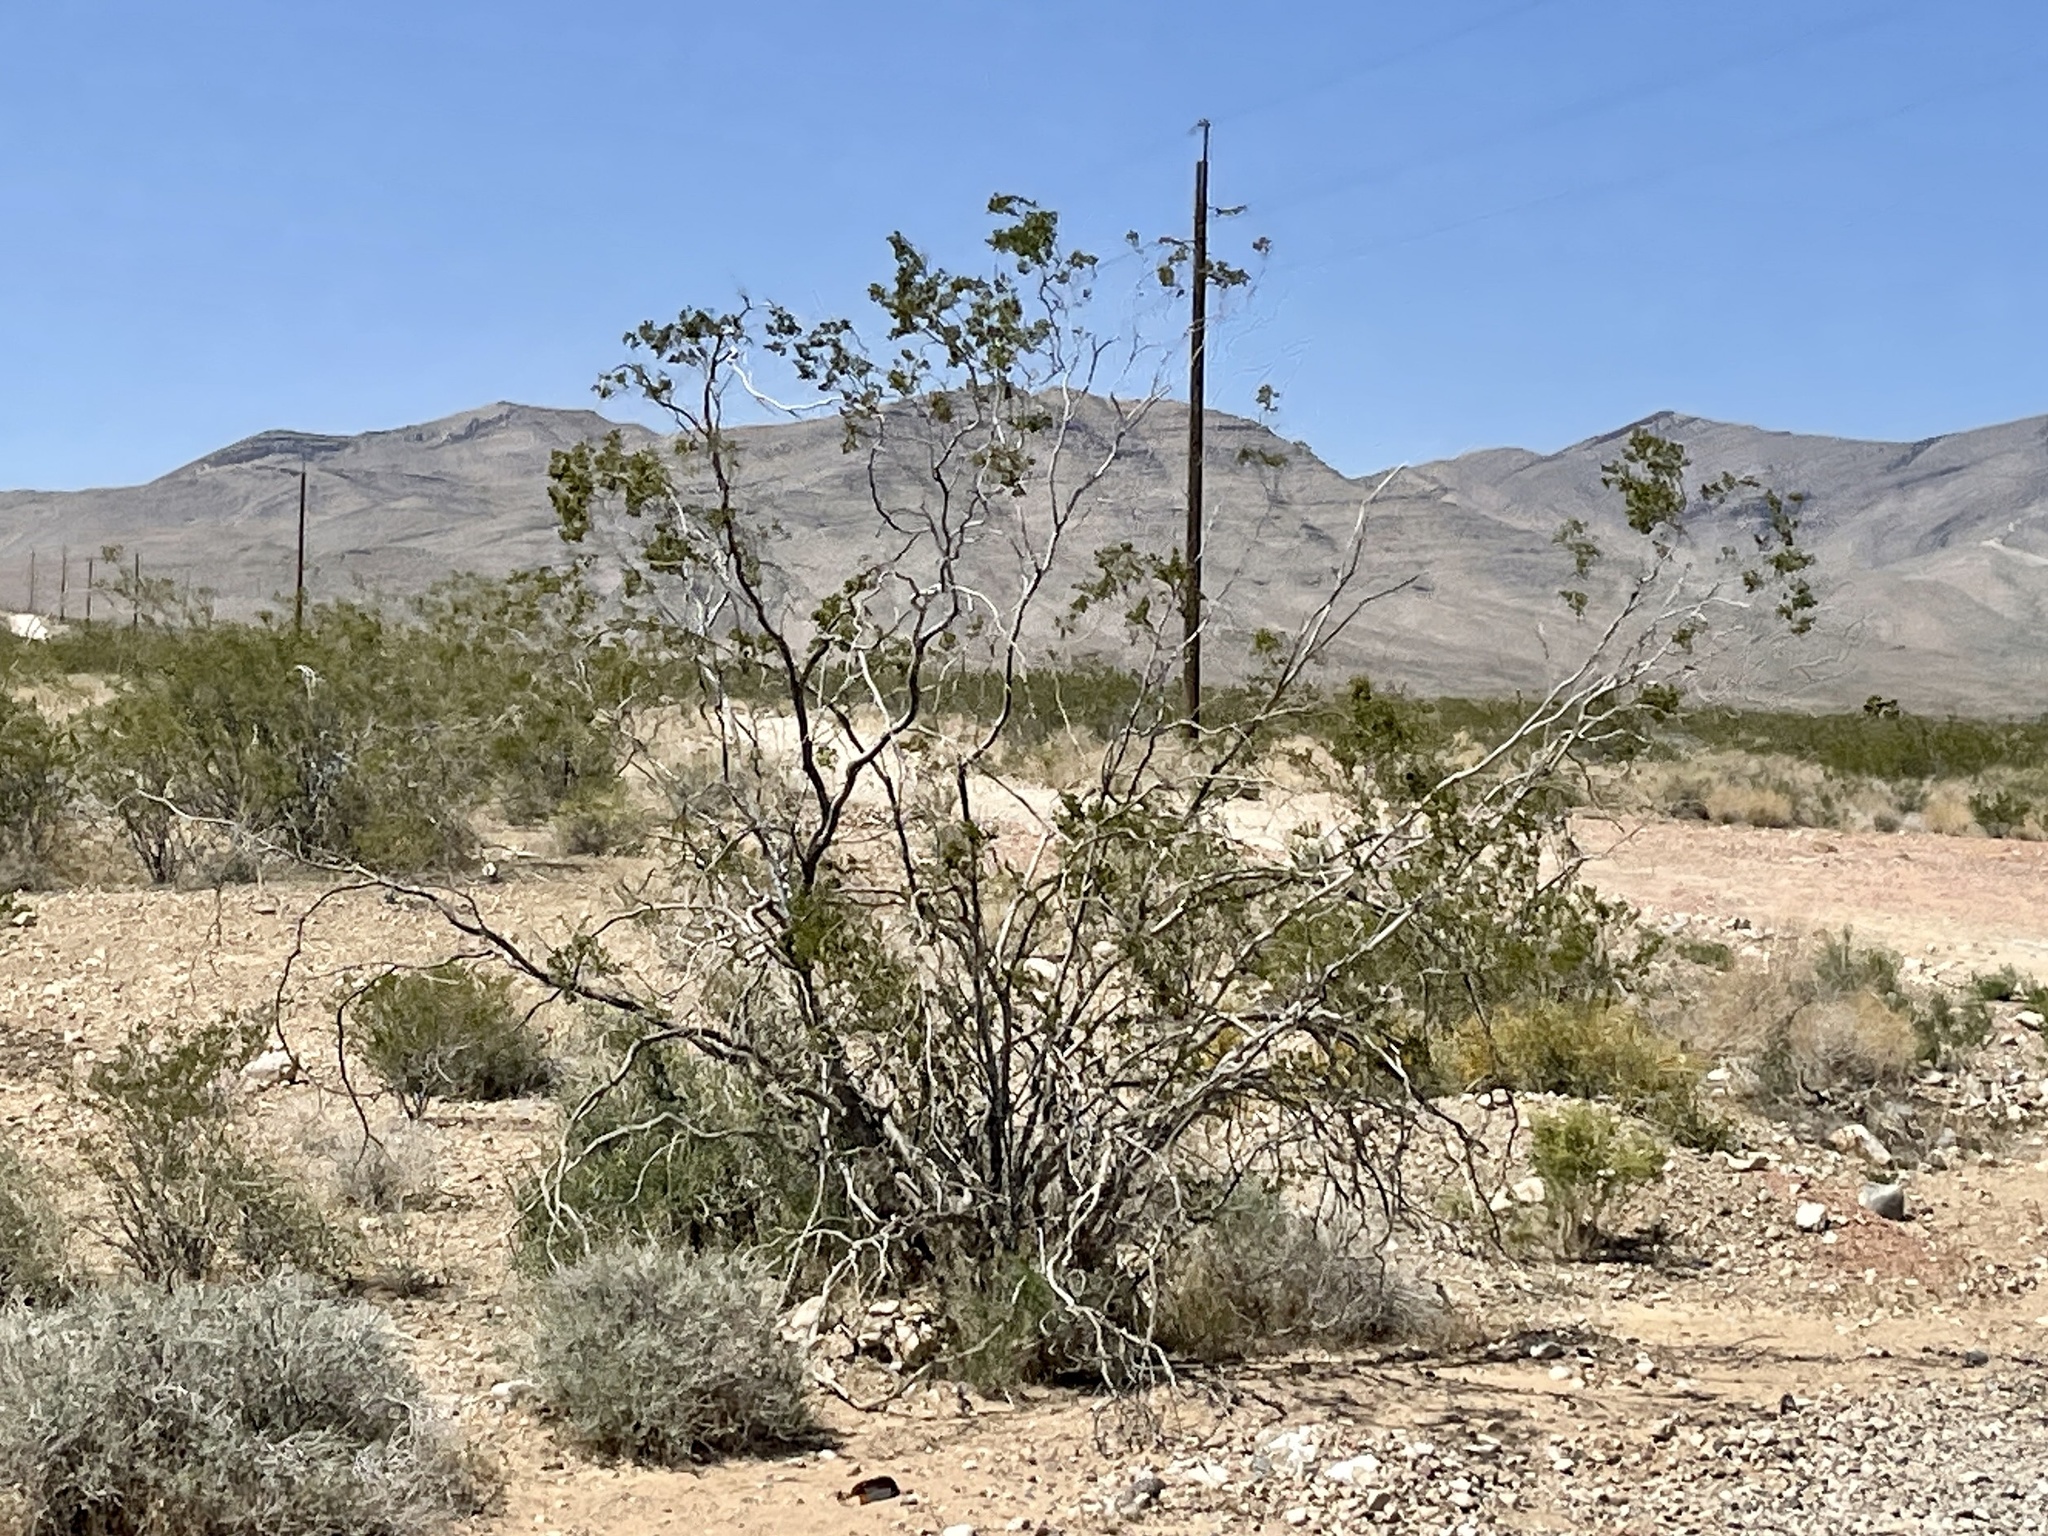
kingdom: Plantae
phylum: Tracheophyta
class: Magnoliopsida
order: Zygophyllales
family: Zygophyllaceae
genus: Larrea
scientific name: Larrea tridentata
